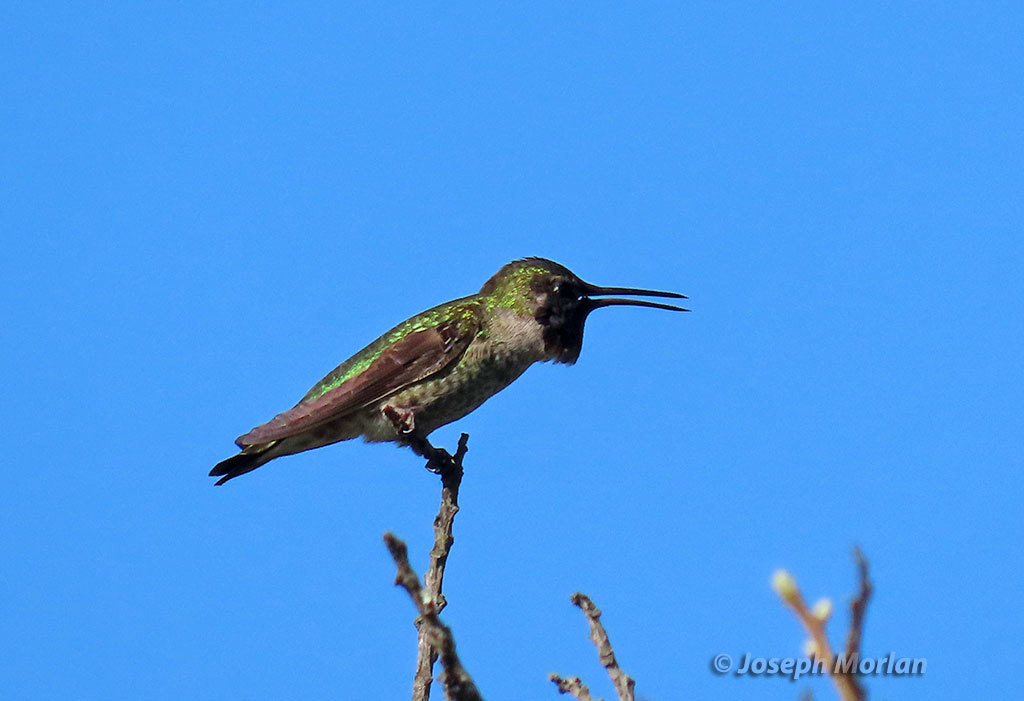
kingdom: Animalia
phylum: Chordata
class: Aves
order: Apodiformes
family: Trochilidae
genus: Calypte
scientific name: Calypte anna
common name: Anna's hummingbird
